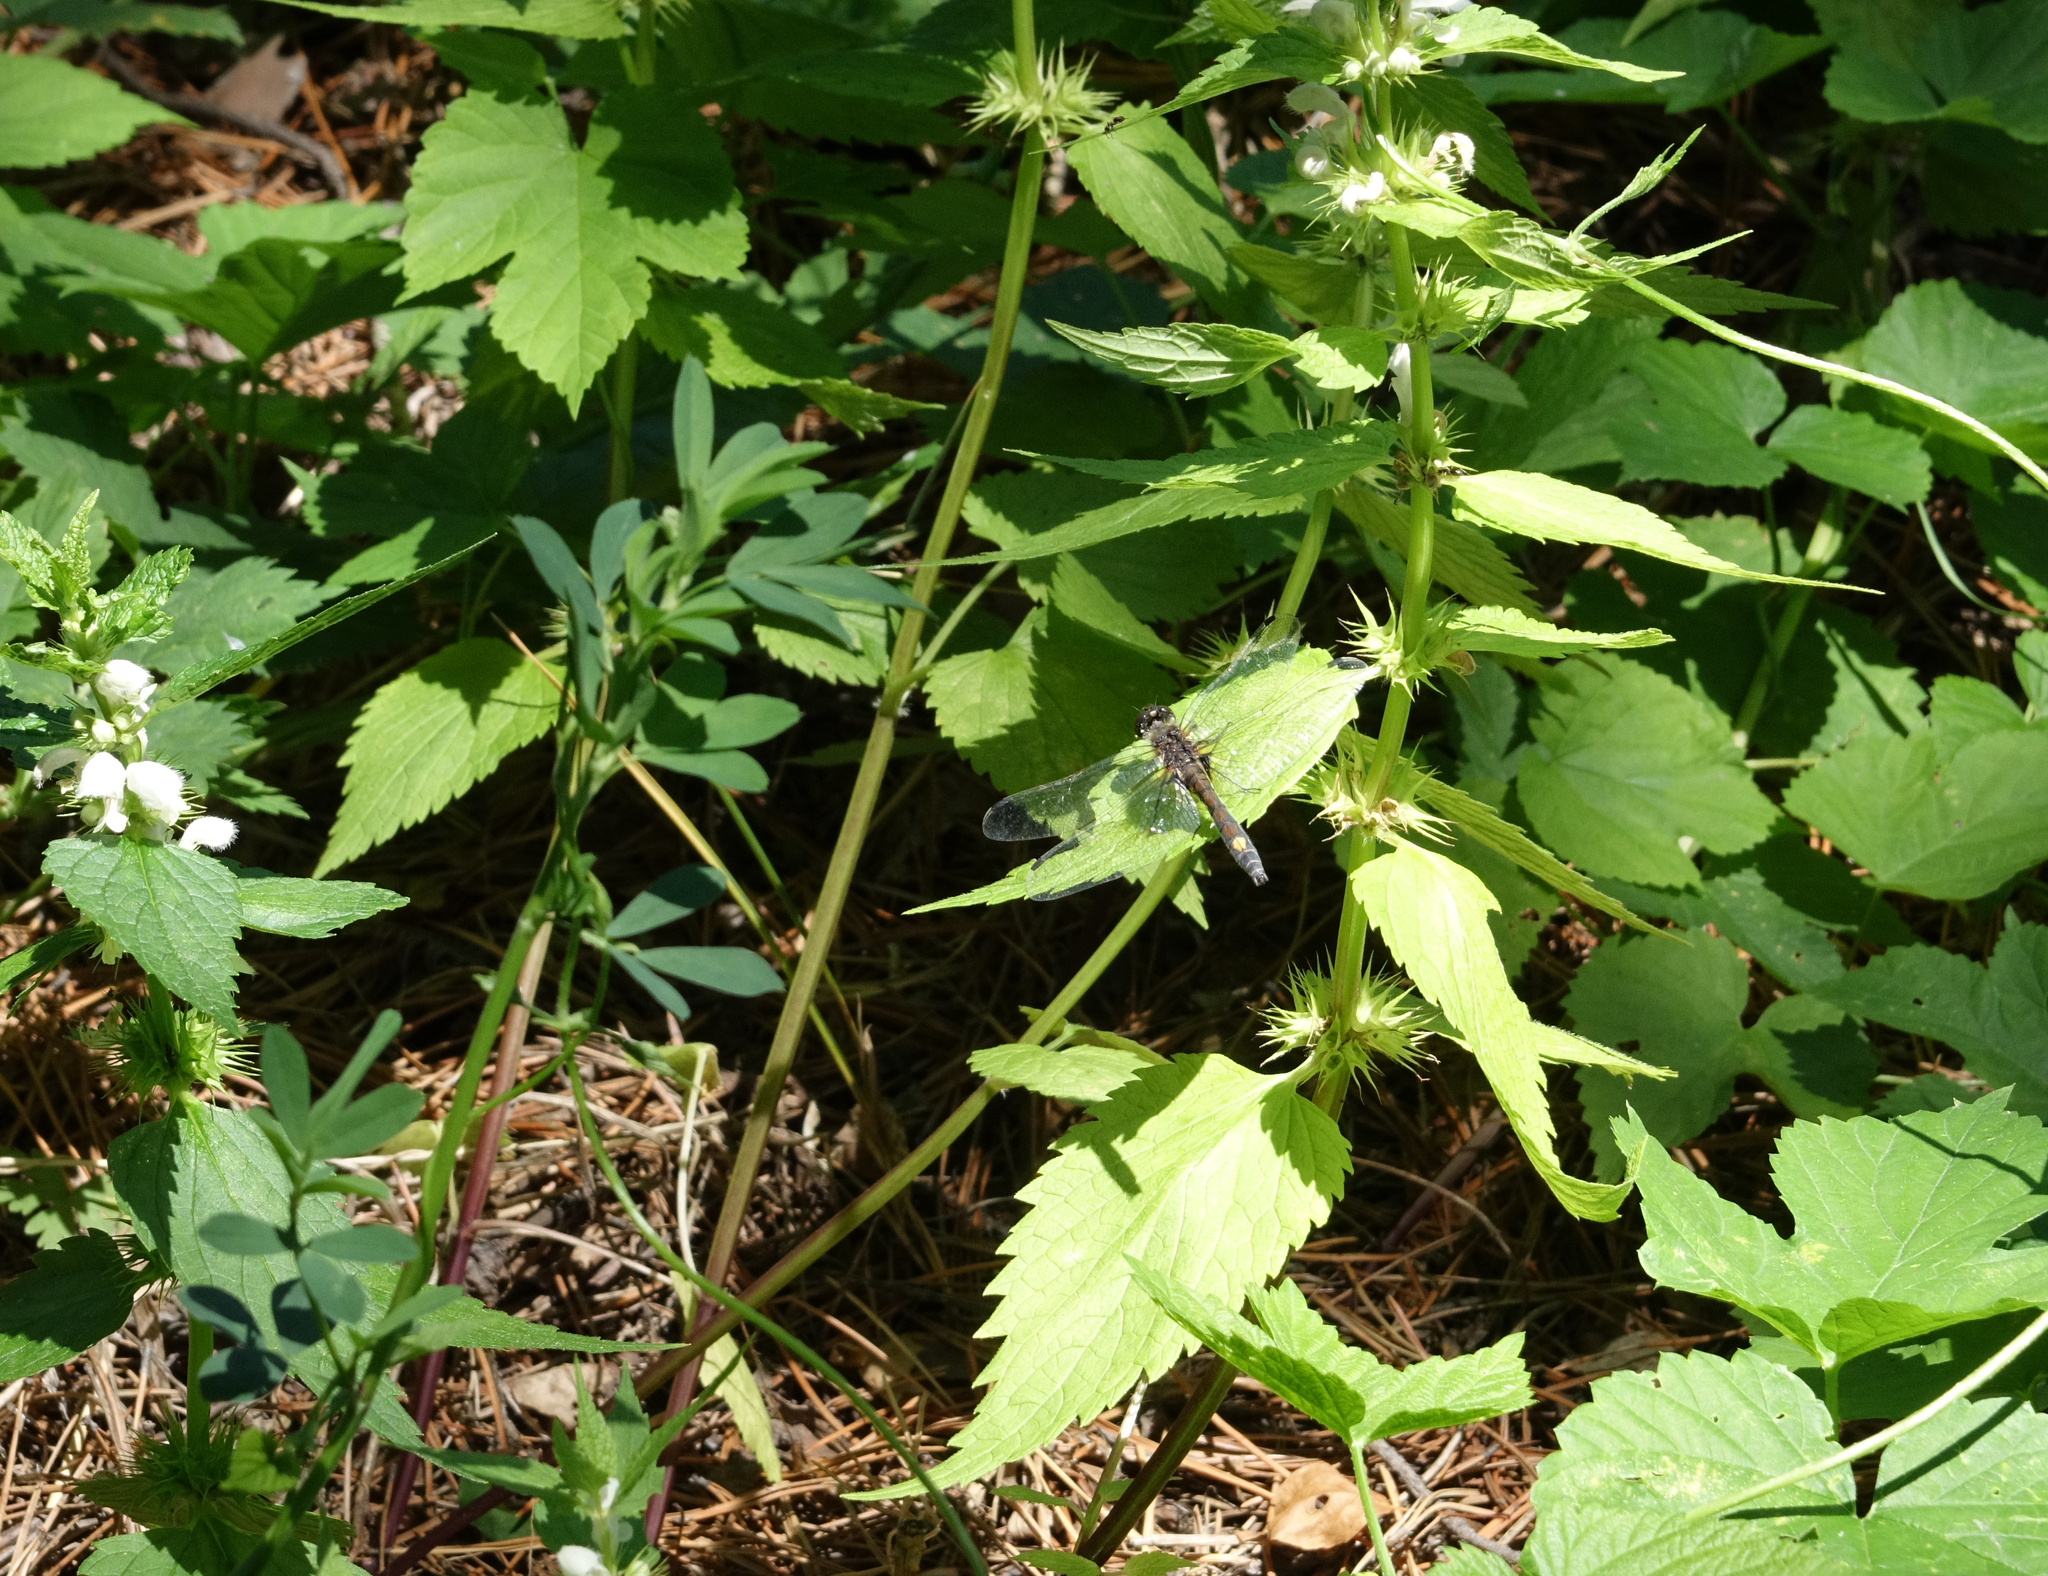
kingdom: Plantae
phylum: Tracheophyta
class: Magnoliopsida
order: Lamiales
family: Lamiaceae
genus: Lamium
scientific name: Lamium album
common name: White dead-nettle
